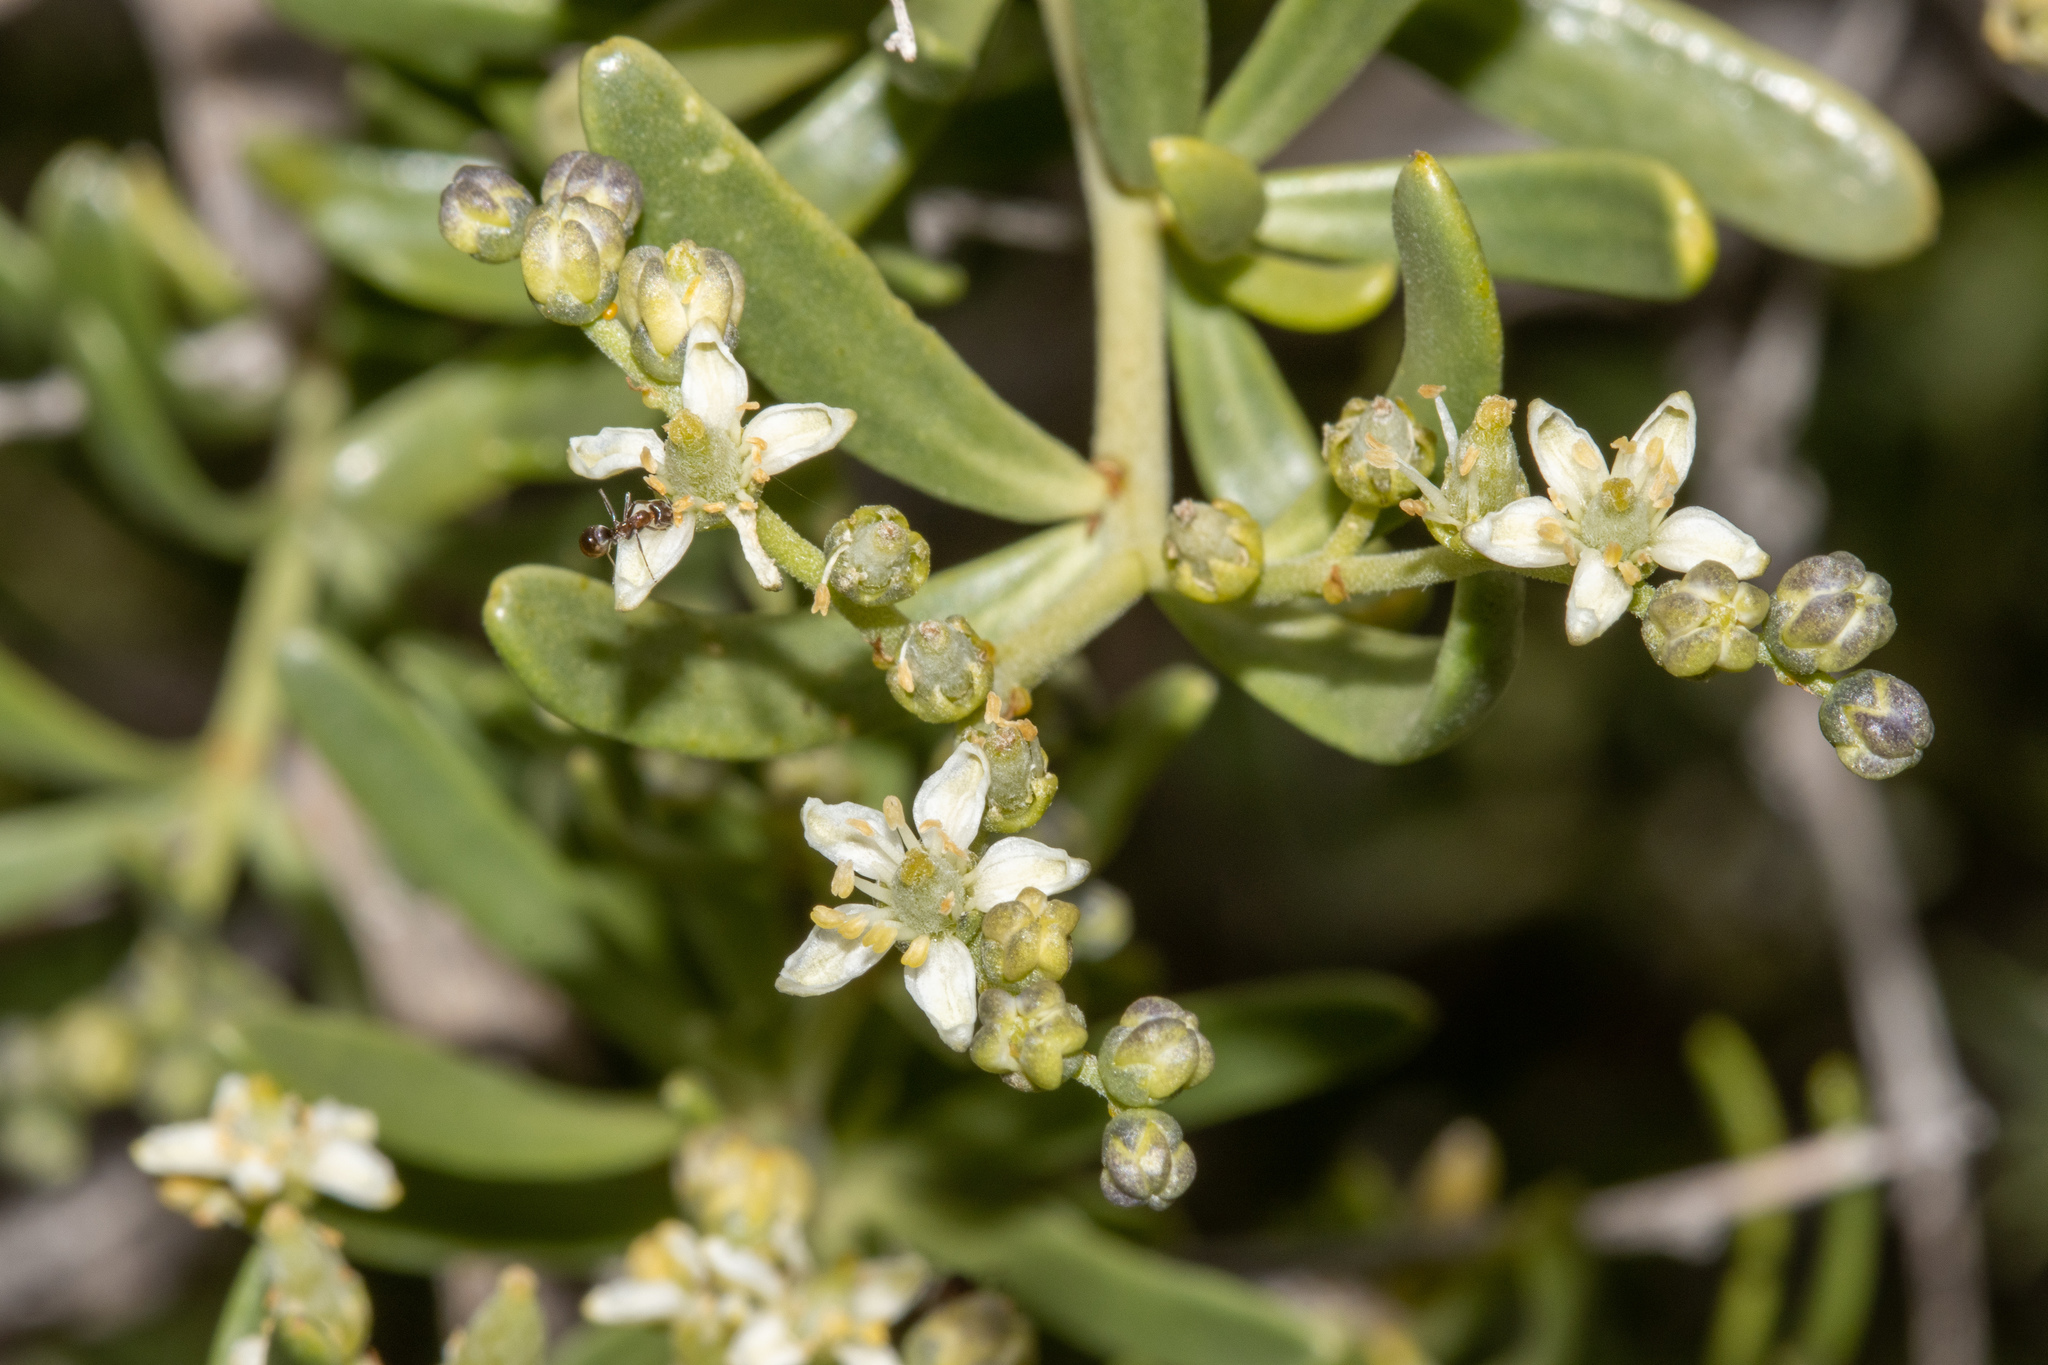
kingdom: Plantae
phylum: Tracheophyta
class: Magnoliopsida
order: Sapindales
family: Nitrariaceae
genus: Nitraria
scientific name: Nitraria billardierei
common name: Dillonbush
